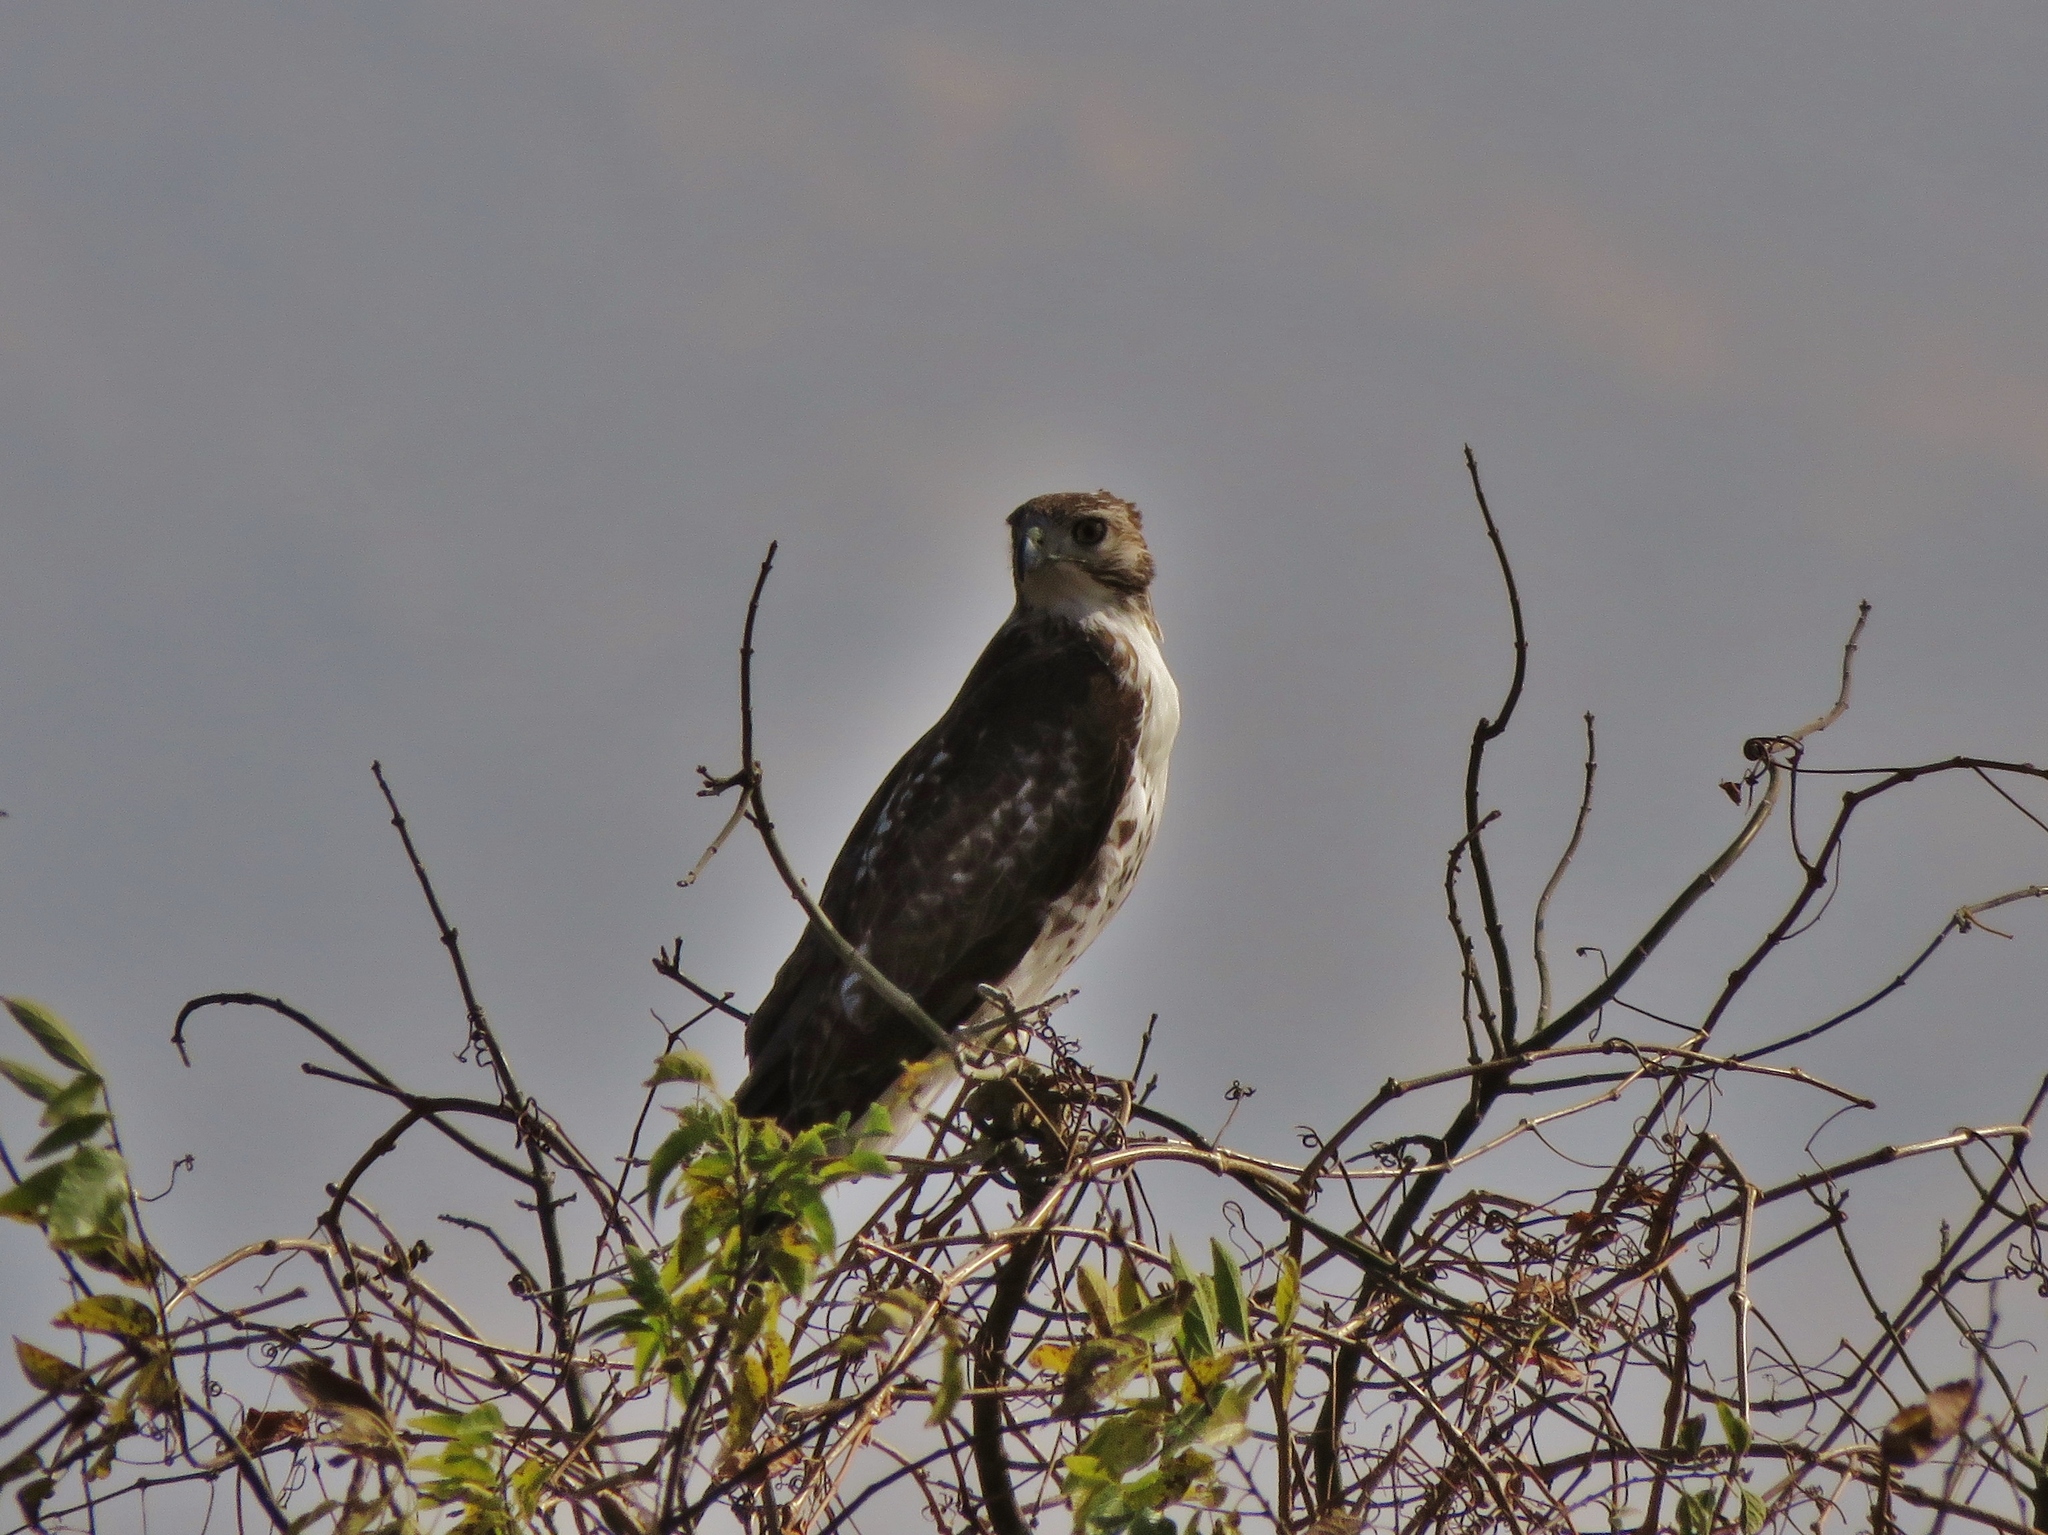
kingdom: Animalia
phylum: Chordata
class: Aves
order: Accipitriformes
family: Accipitridae
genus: Buteo
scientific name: Buteo jamaicensis
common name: Red-tailed hawk
